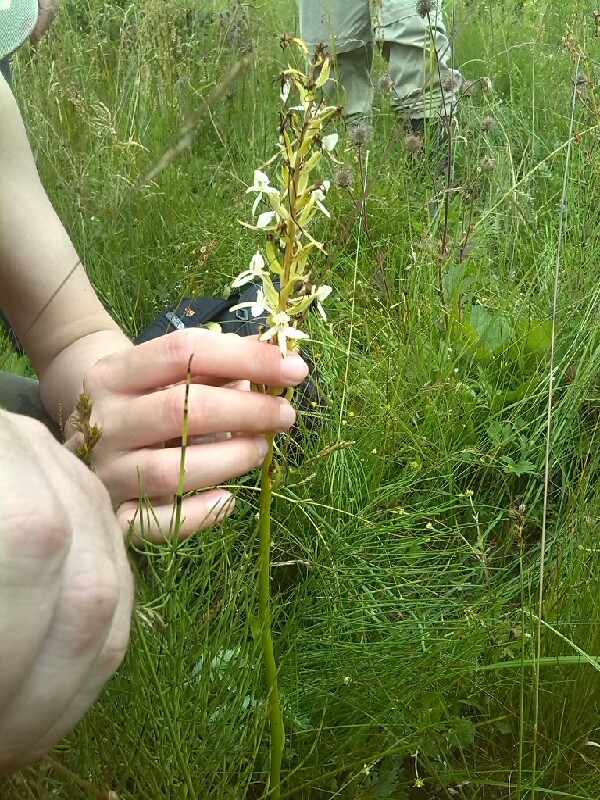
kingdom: Plantae
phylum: Tracheophyta
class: Liliopsida
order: Asparagales
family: Orchidaceae
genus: Platanthera
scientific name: Platanthera bifolia
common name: Lesser butterfly-orchid
